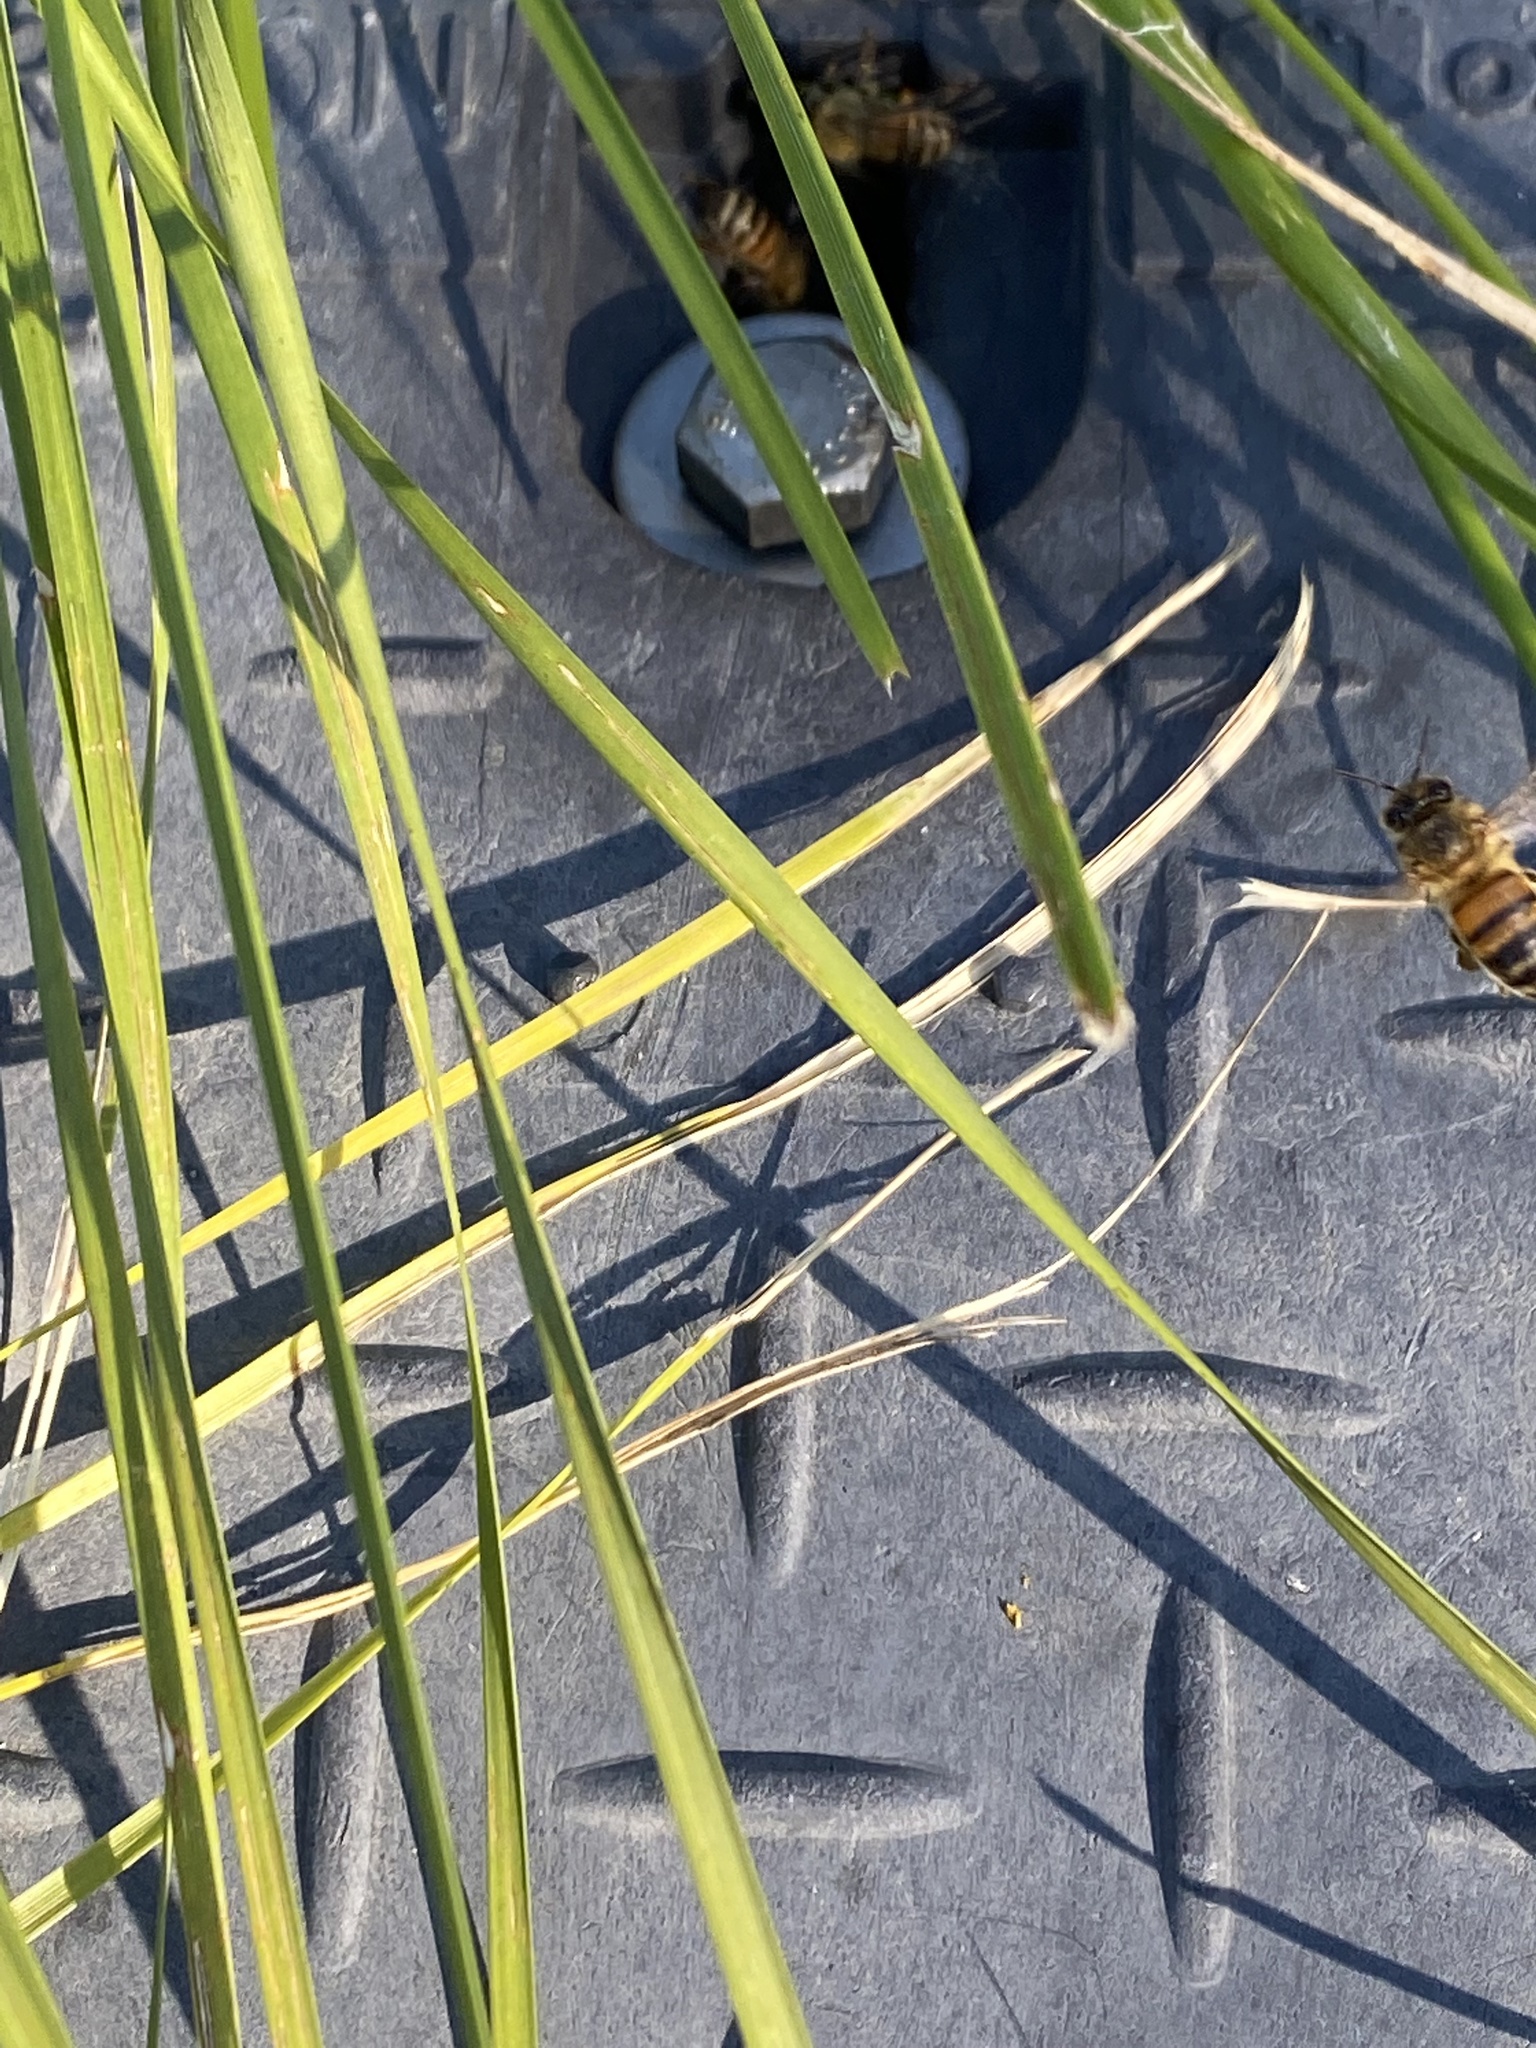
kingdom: Animalia
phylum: Arthropoda
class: Insecta
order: Hymenoptera
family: Apidae
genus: Apis
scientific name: Apis mellifera
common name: Honey bee
